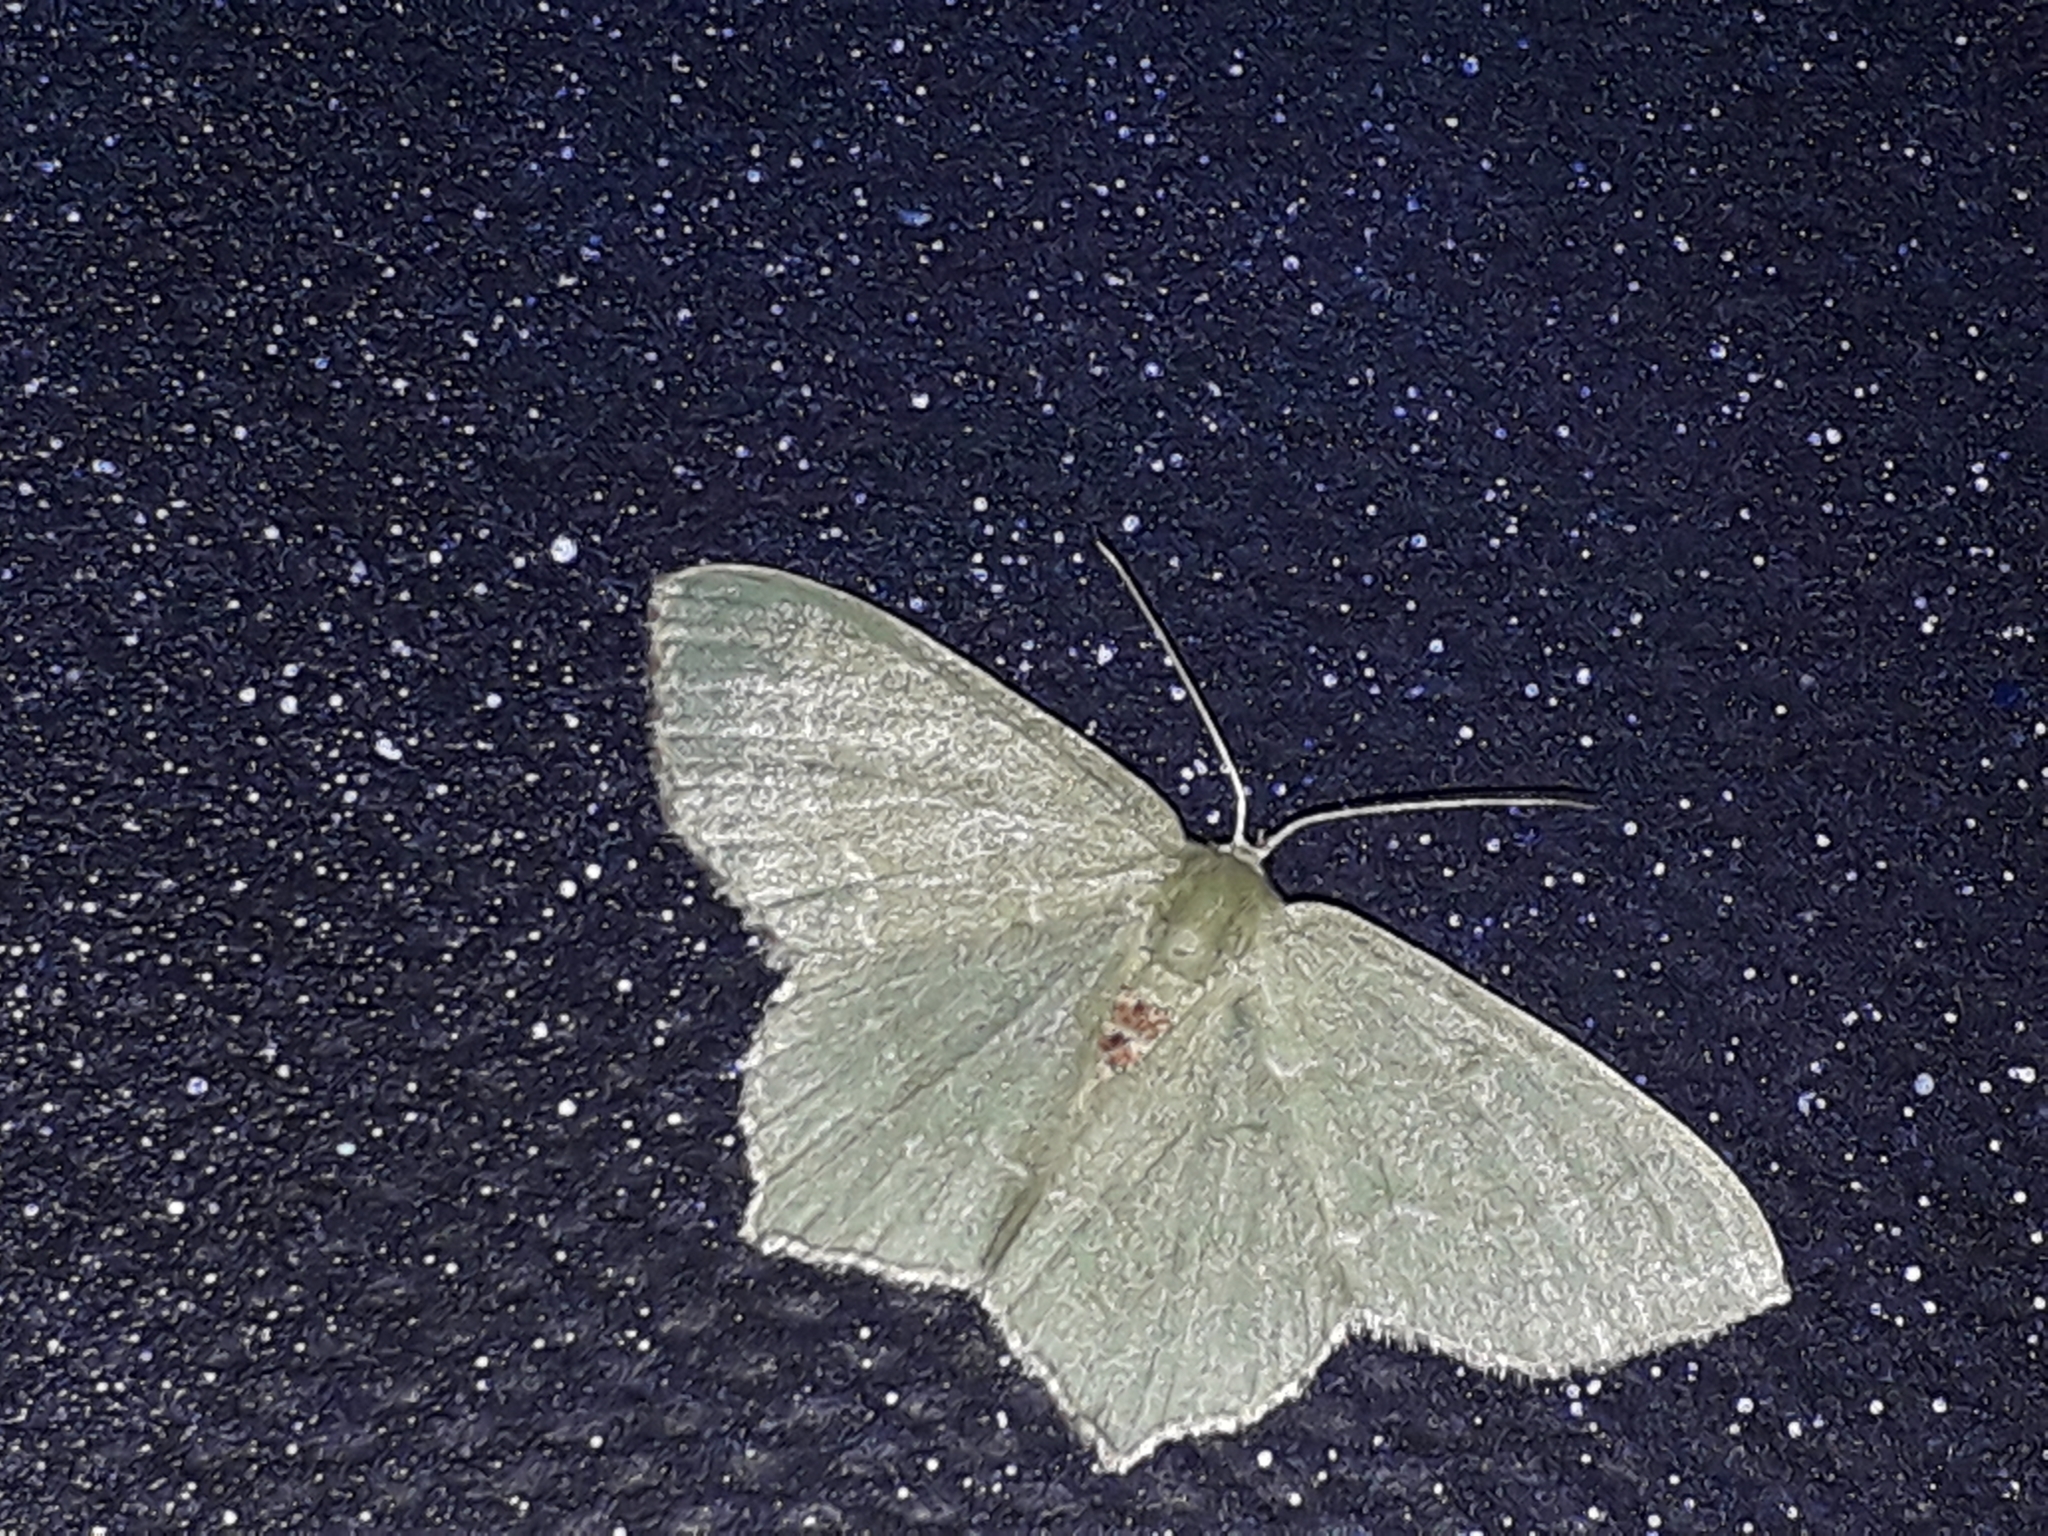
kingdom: Animalia
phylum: Arthropoda
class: Insecta
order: Lepidoptera
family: Geometridae
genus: Hemithea
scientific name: Hemithea aestivaria
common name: Common emerald
